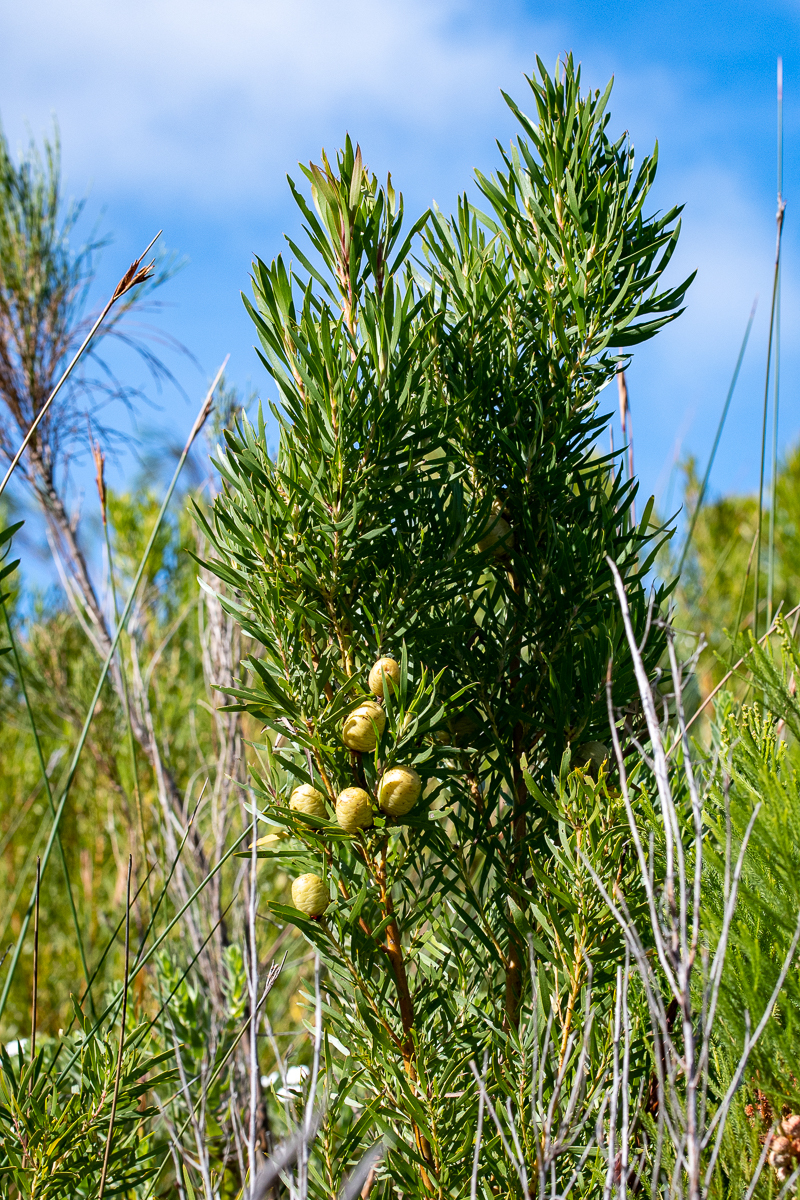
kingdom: Plantae
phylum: Tracheophyta
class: Magnoliopsida
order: Proteales
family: Proteaceae
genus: Leucadendron
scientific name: Leucadendron salicifolium
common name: Common stream conebush
